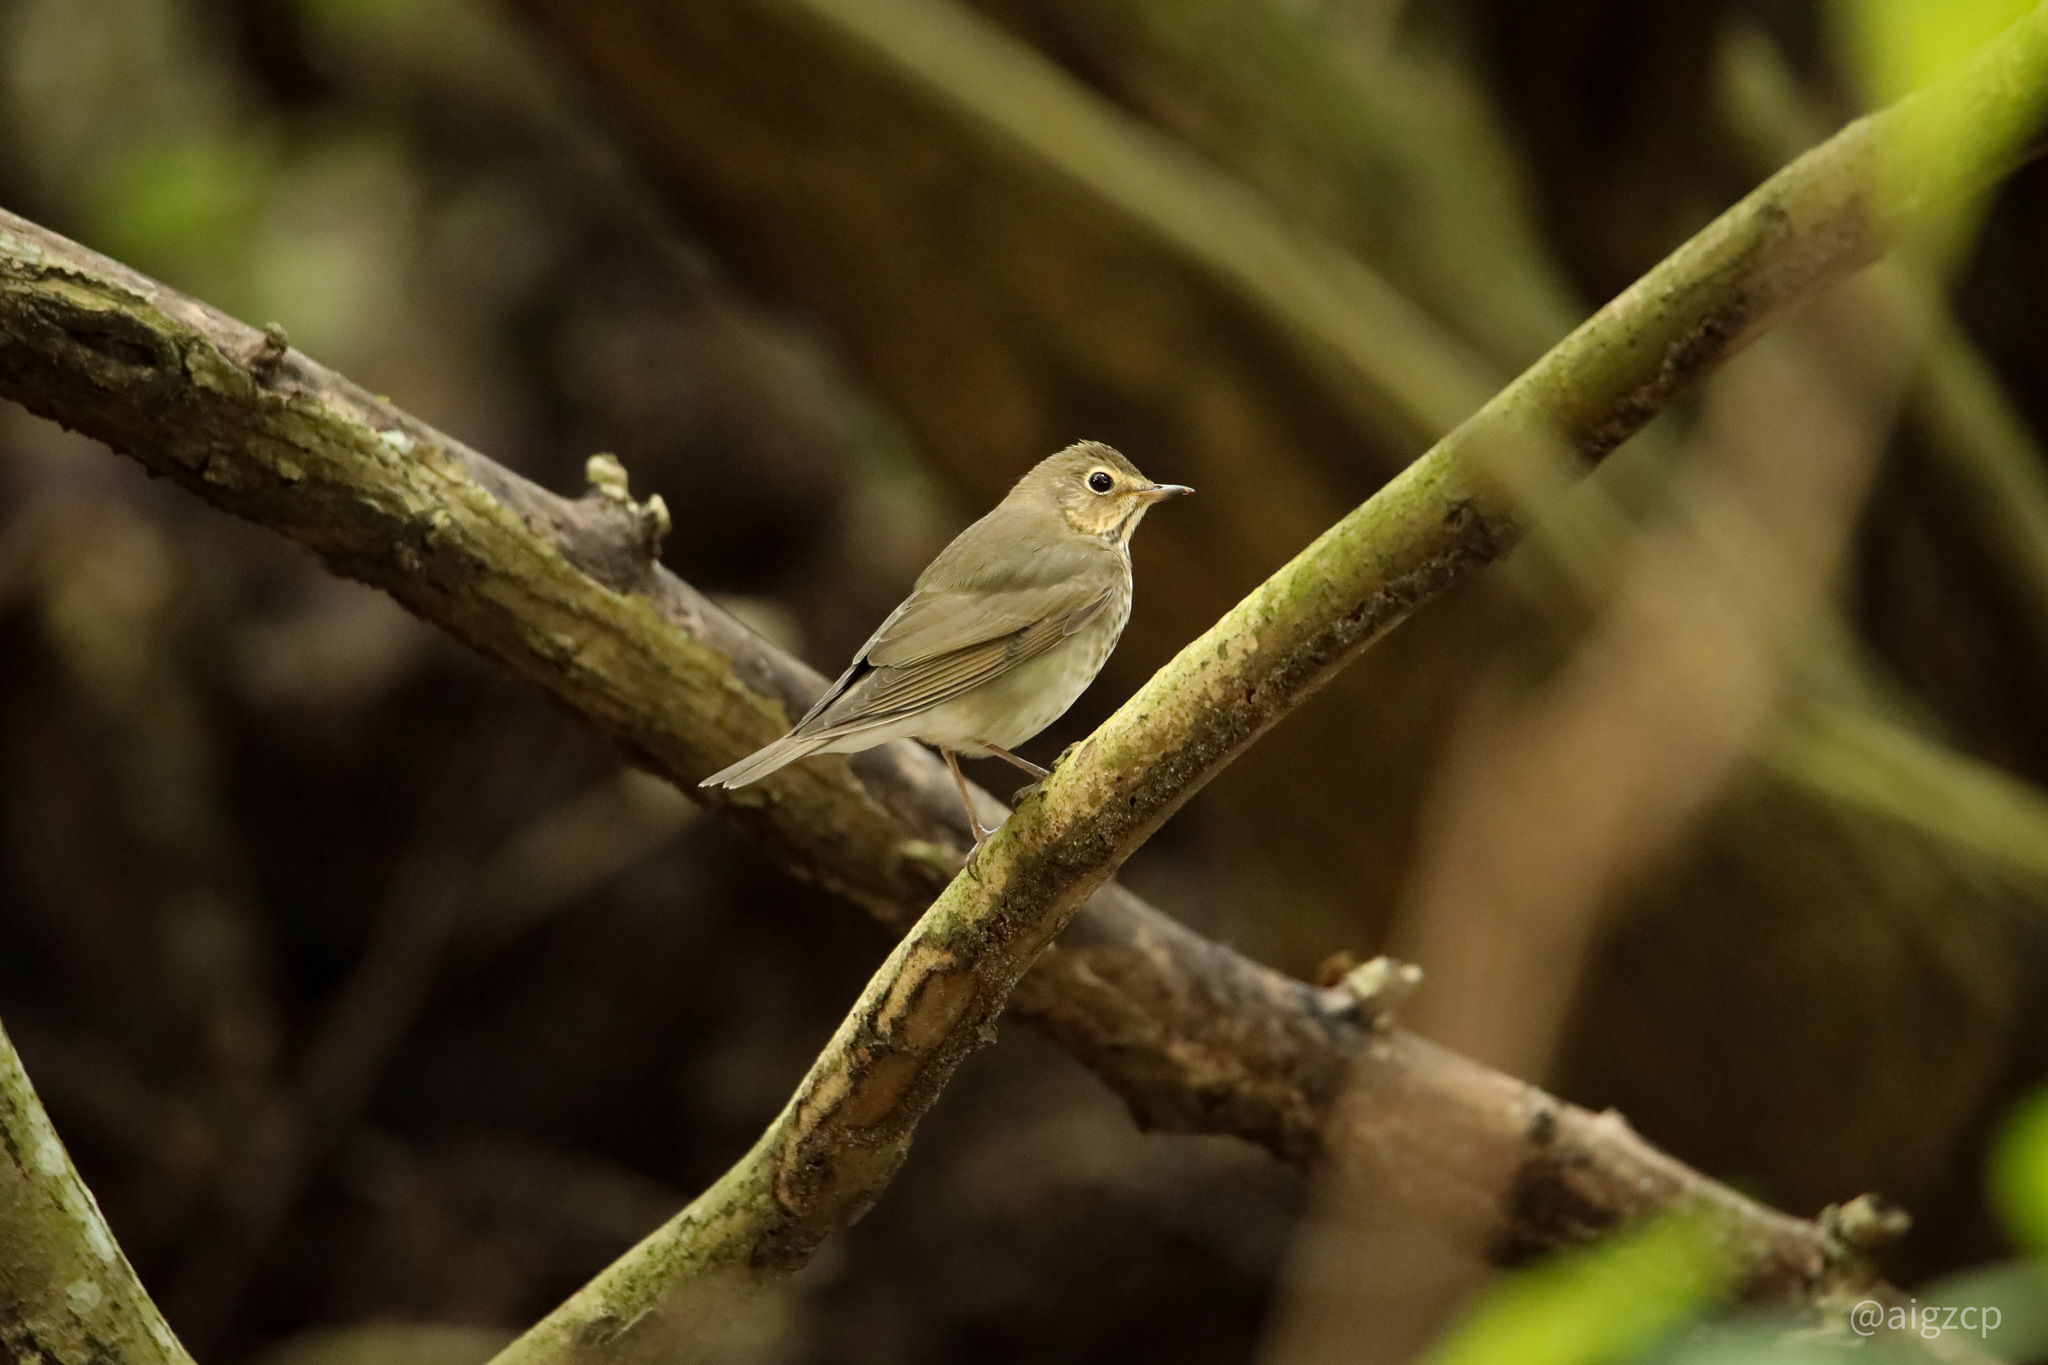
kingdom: Animalia
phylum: Chordata
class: Aves
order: Passeriformes
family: Turdidae
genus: Catharus
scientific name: Catharus ustulatus
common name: Swainson's thrush
